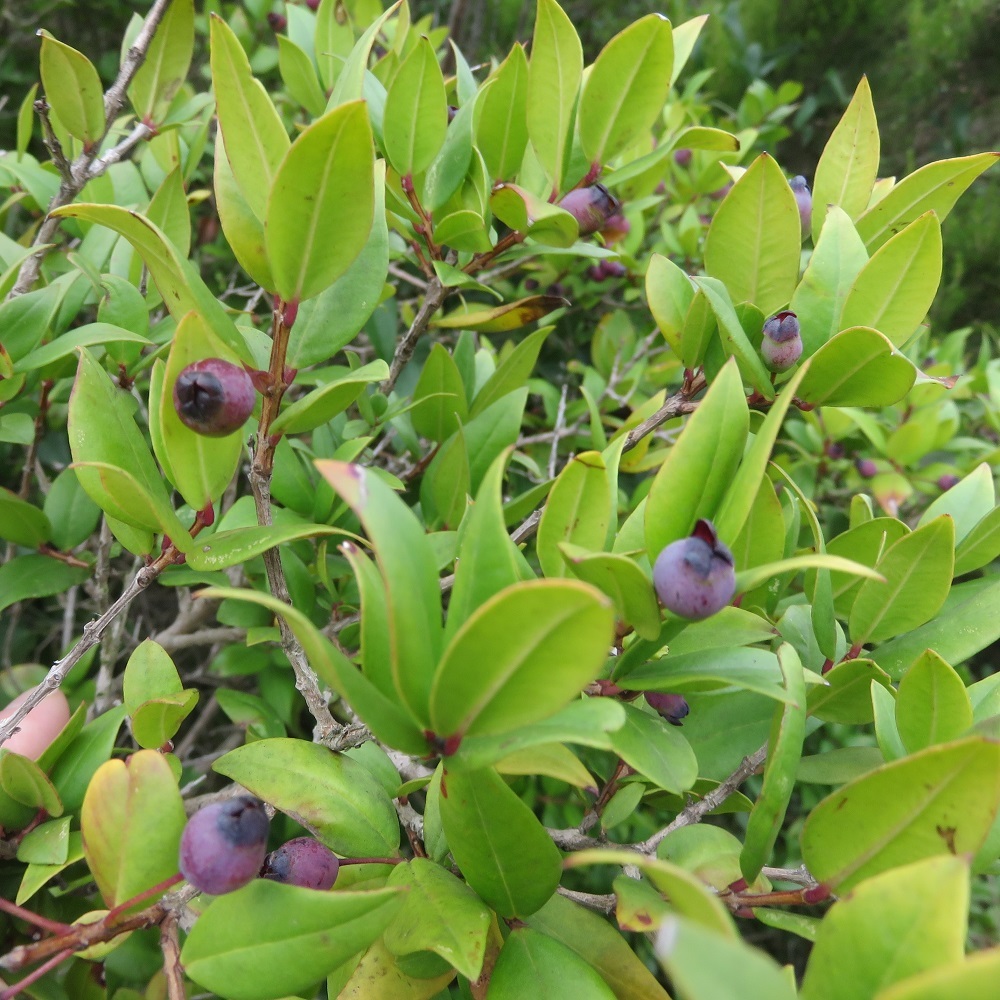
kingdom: Plantae
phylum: Tracheophyta
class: Magnoliopsida
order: Myrtales
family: Myrtaceae
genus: Myrtus
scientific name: Myrtus communis
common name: Myrtle
